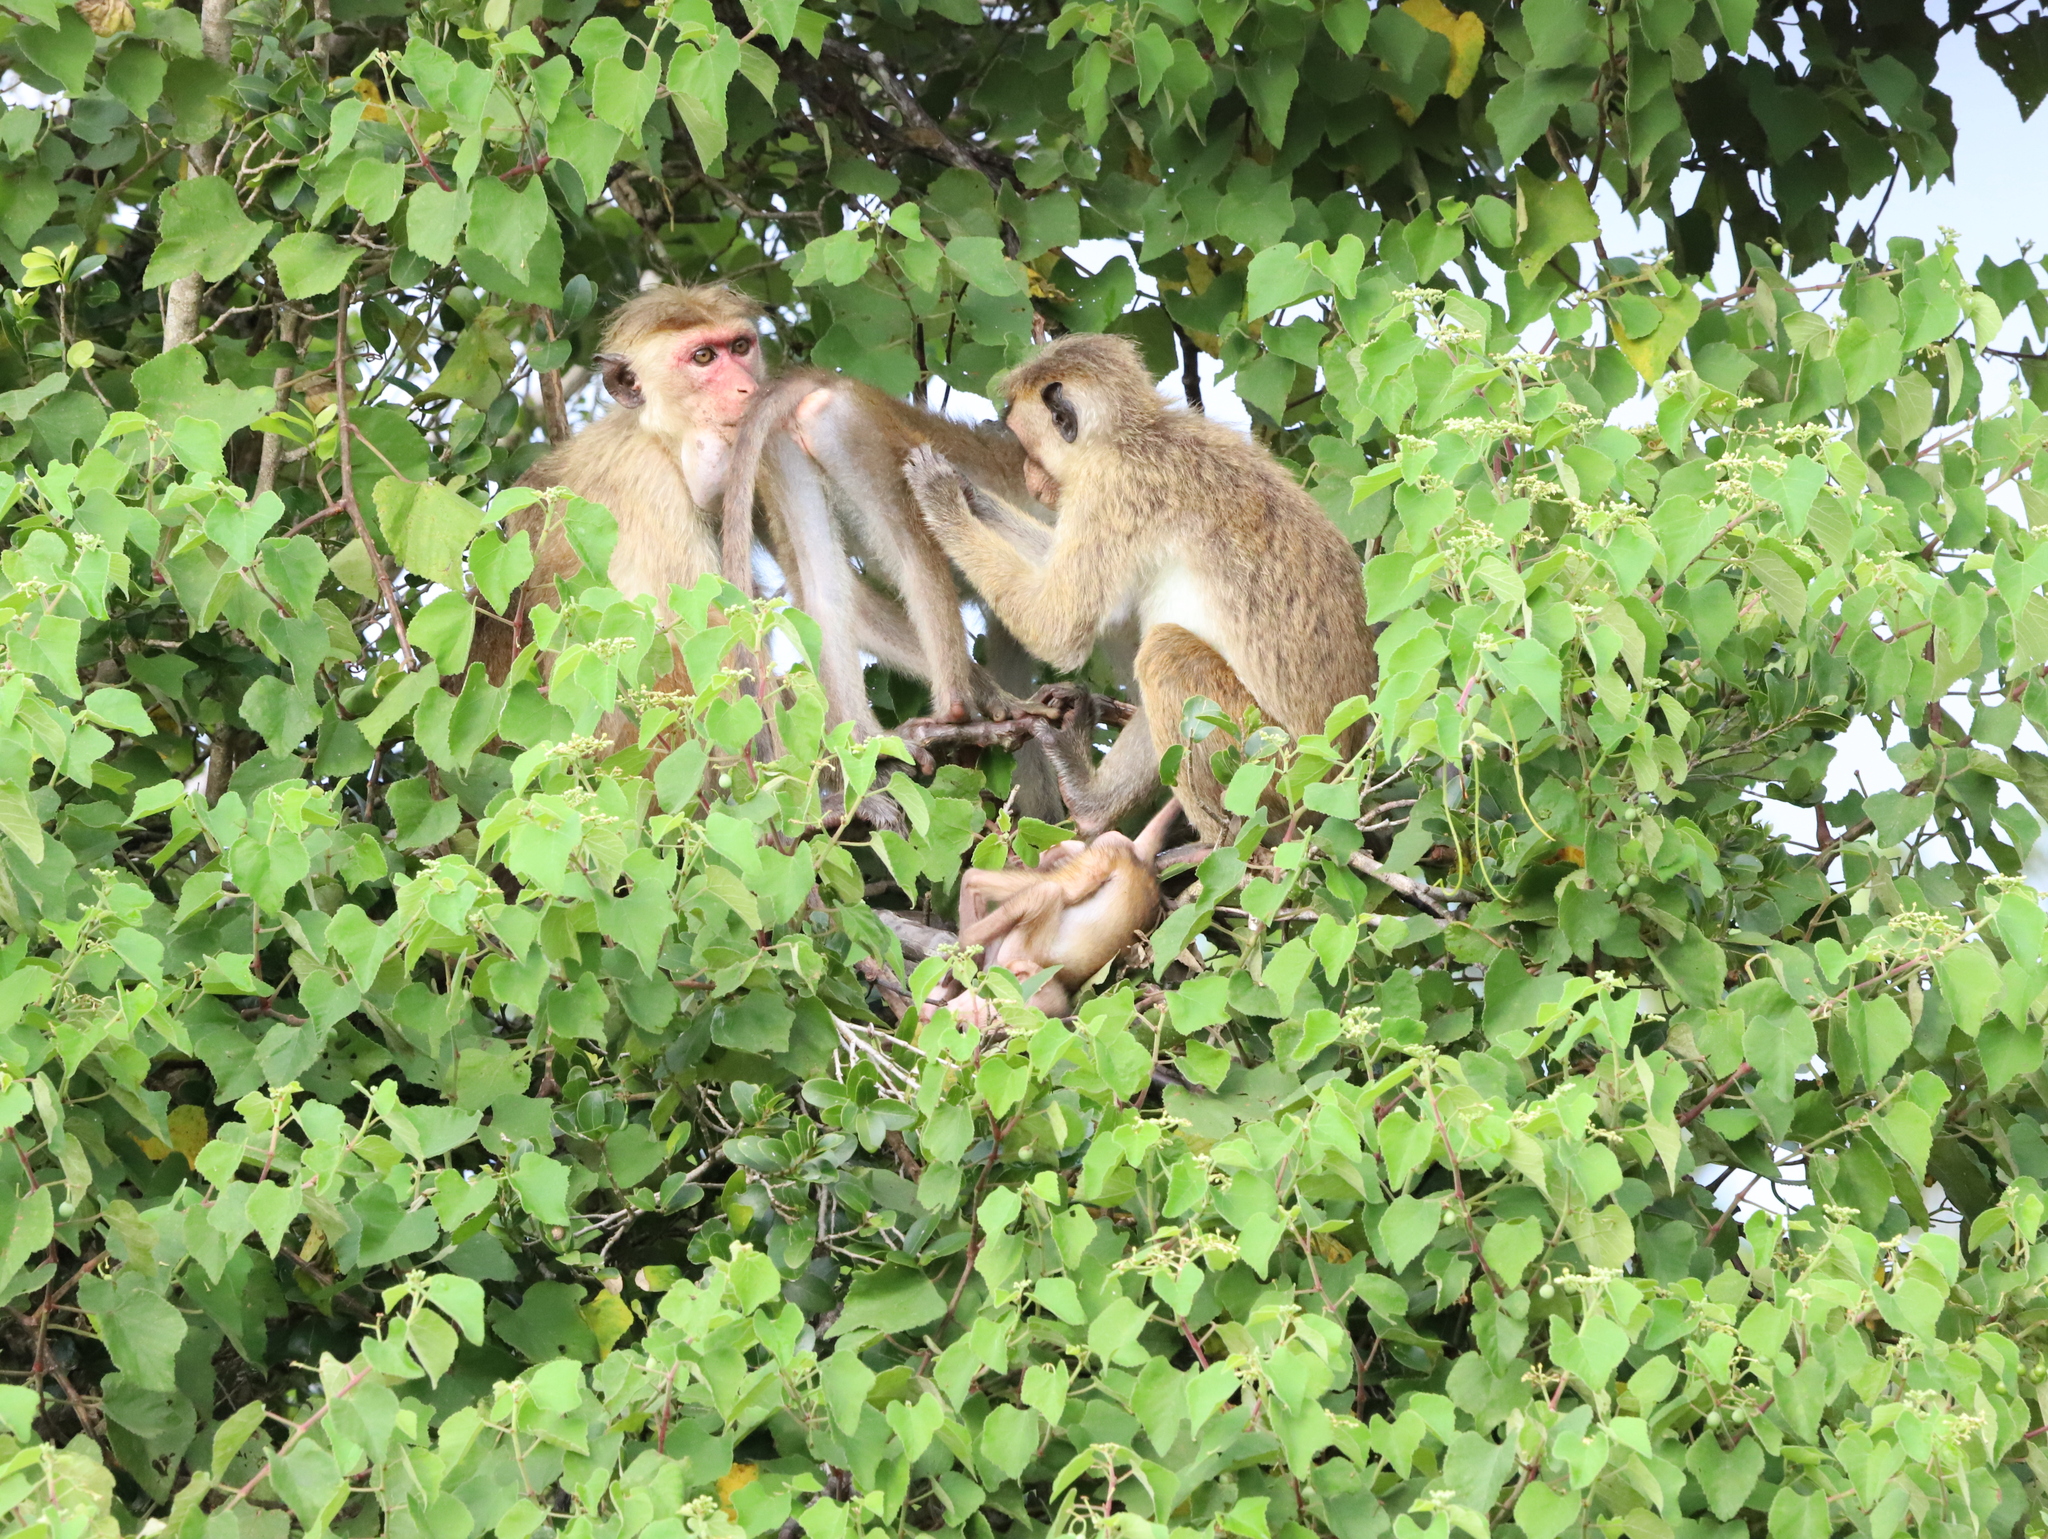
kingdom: Animalia
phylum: Chordata
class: Mammalia
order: Primates
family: Cercopithecidae
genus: Macaca
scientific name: Macaca sinica
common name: Toque macaque
